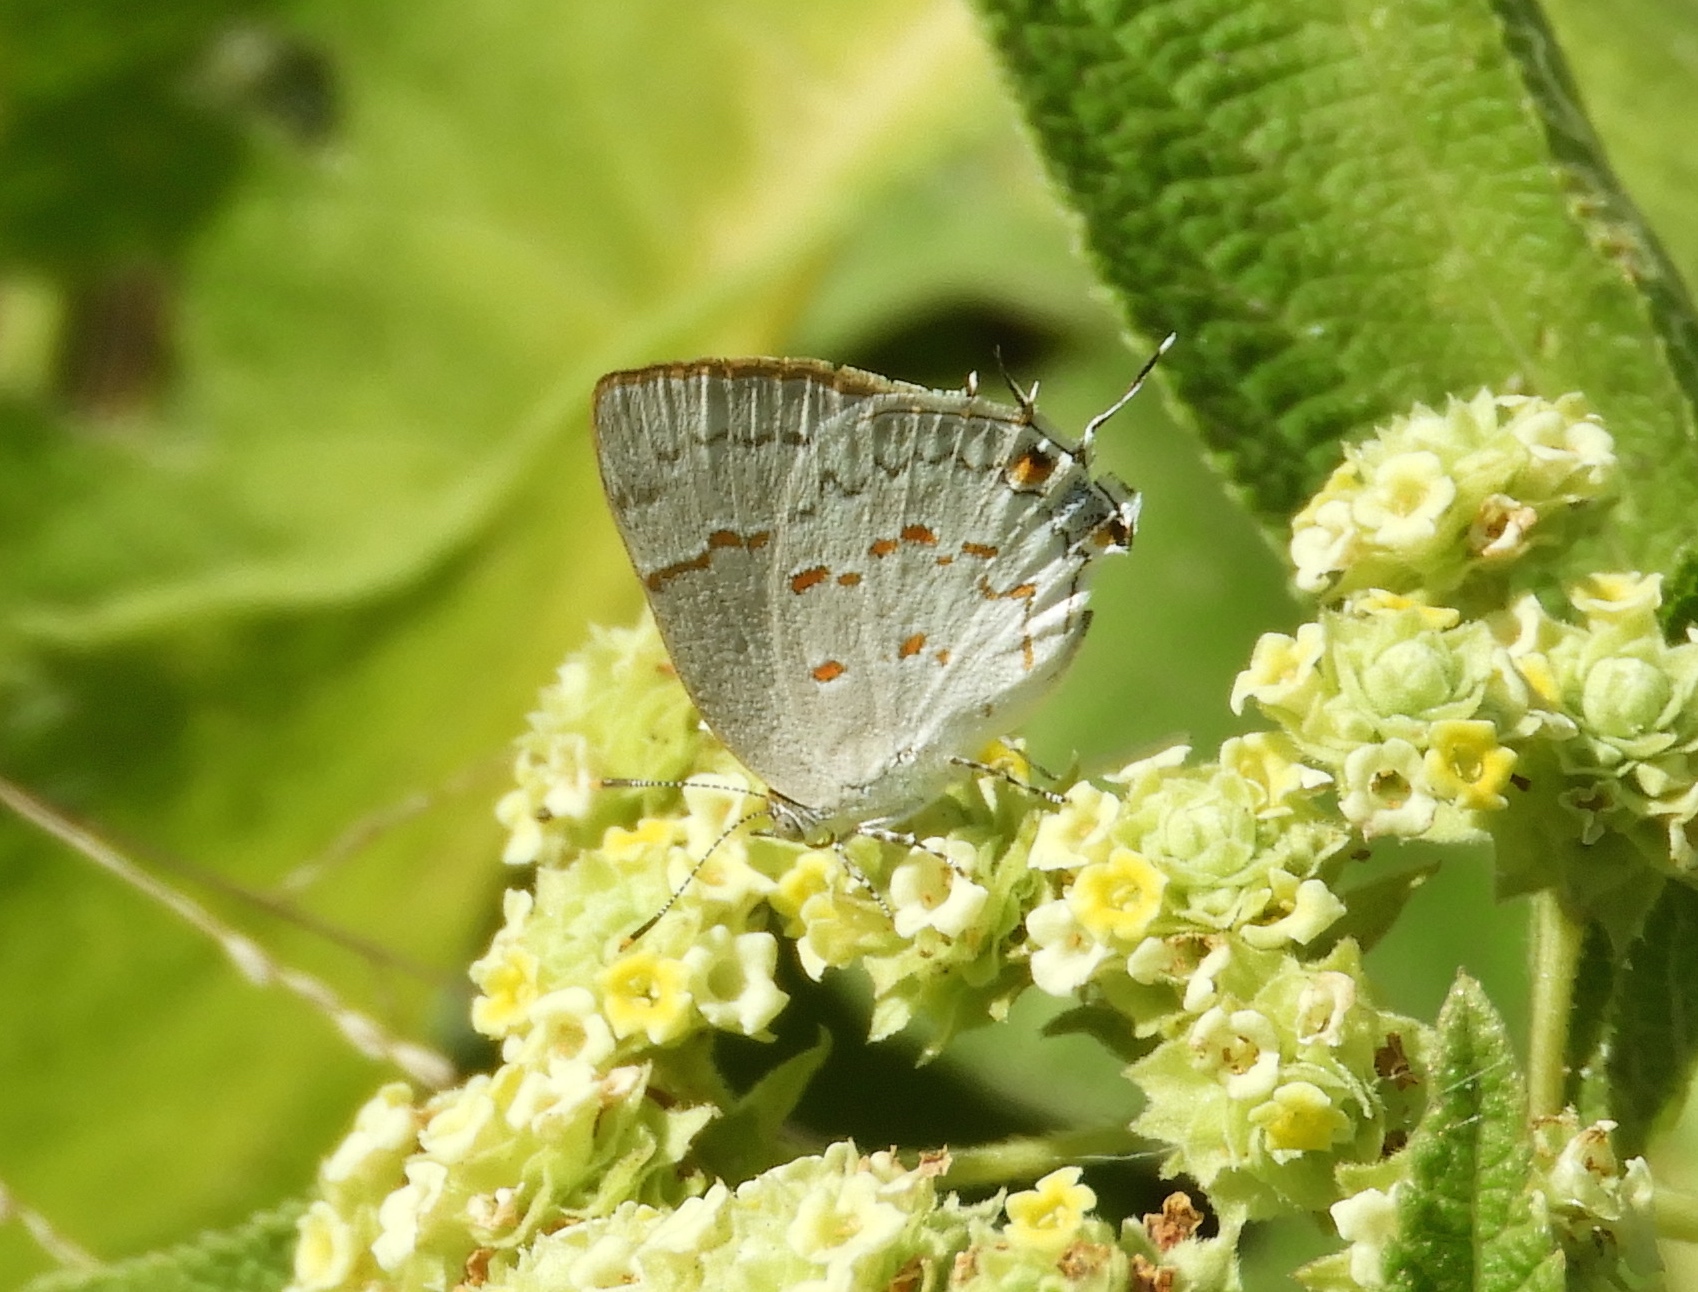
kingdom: Animalia
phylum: Arthropoda
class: Insecta
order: Lepidoptera
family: Lycaenidae
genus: Tmolus
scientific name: Tmolus echion
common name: Red-spotted hairstreak
